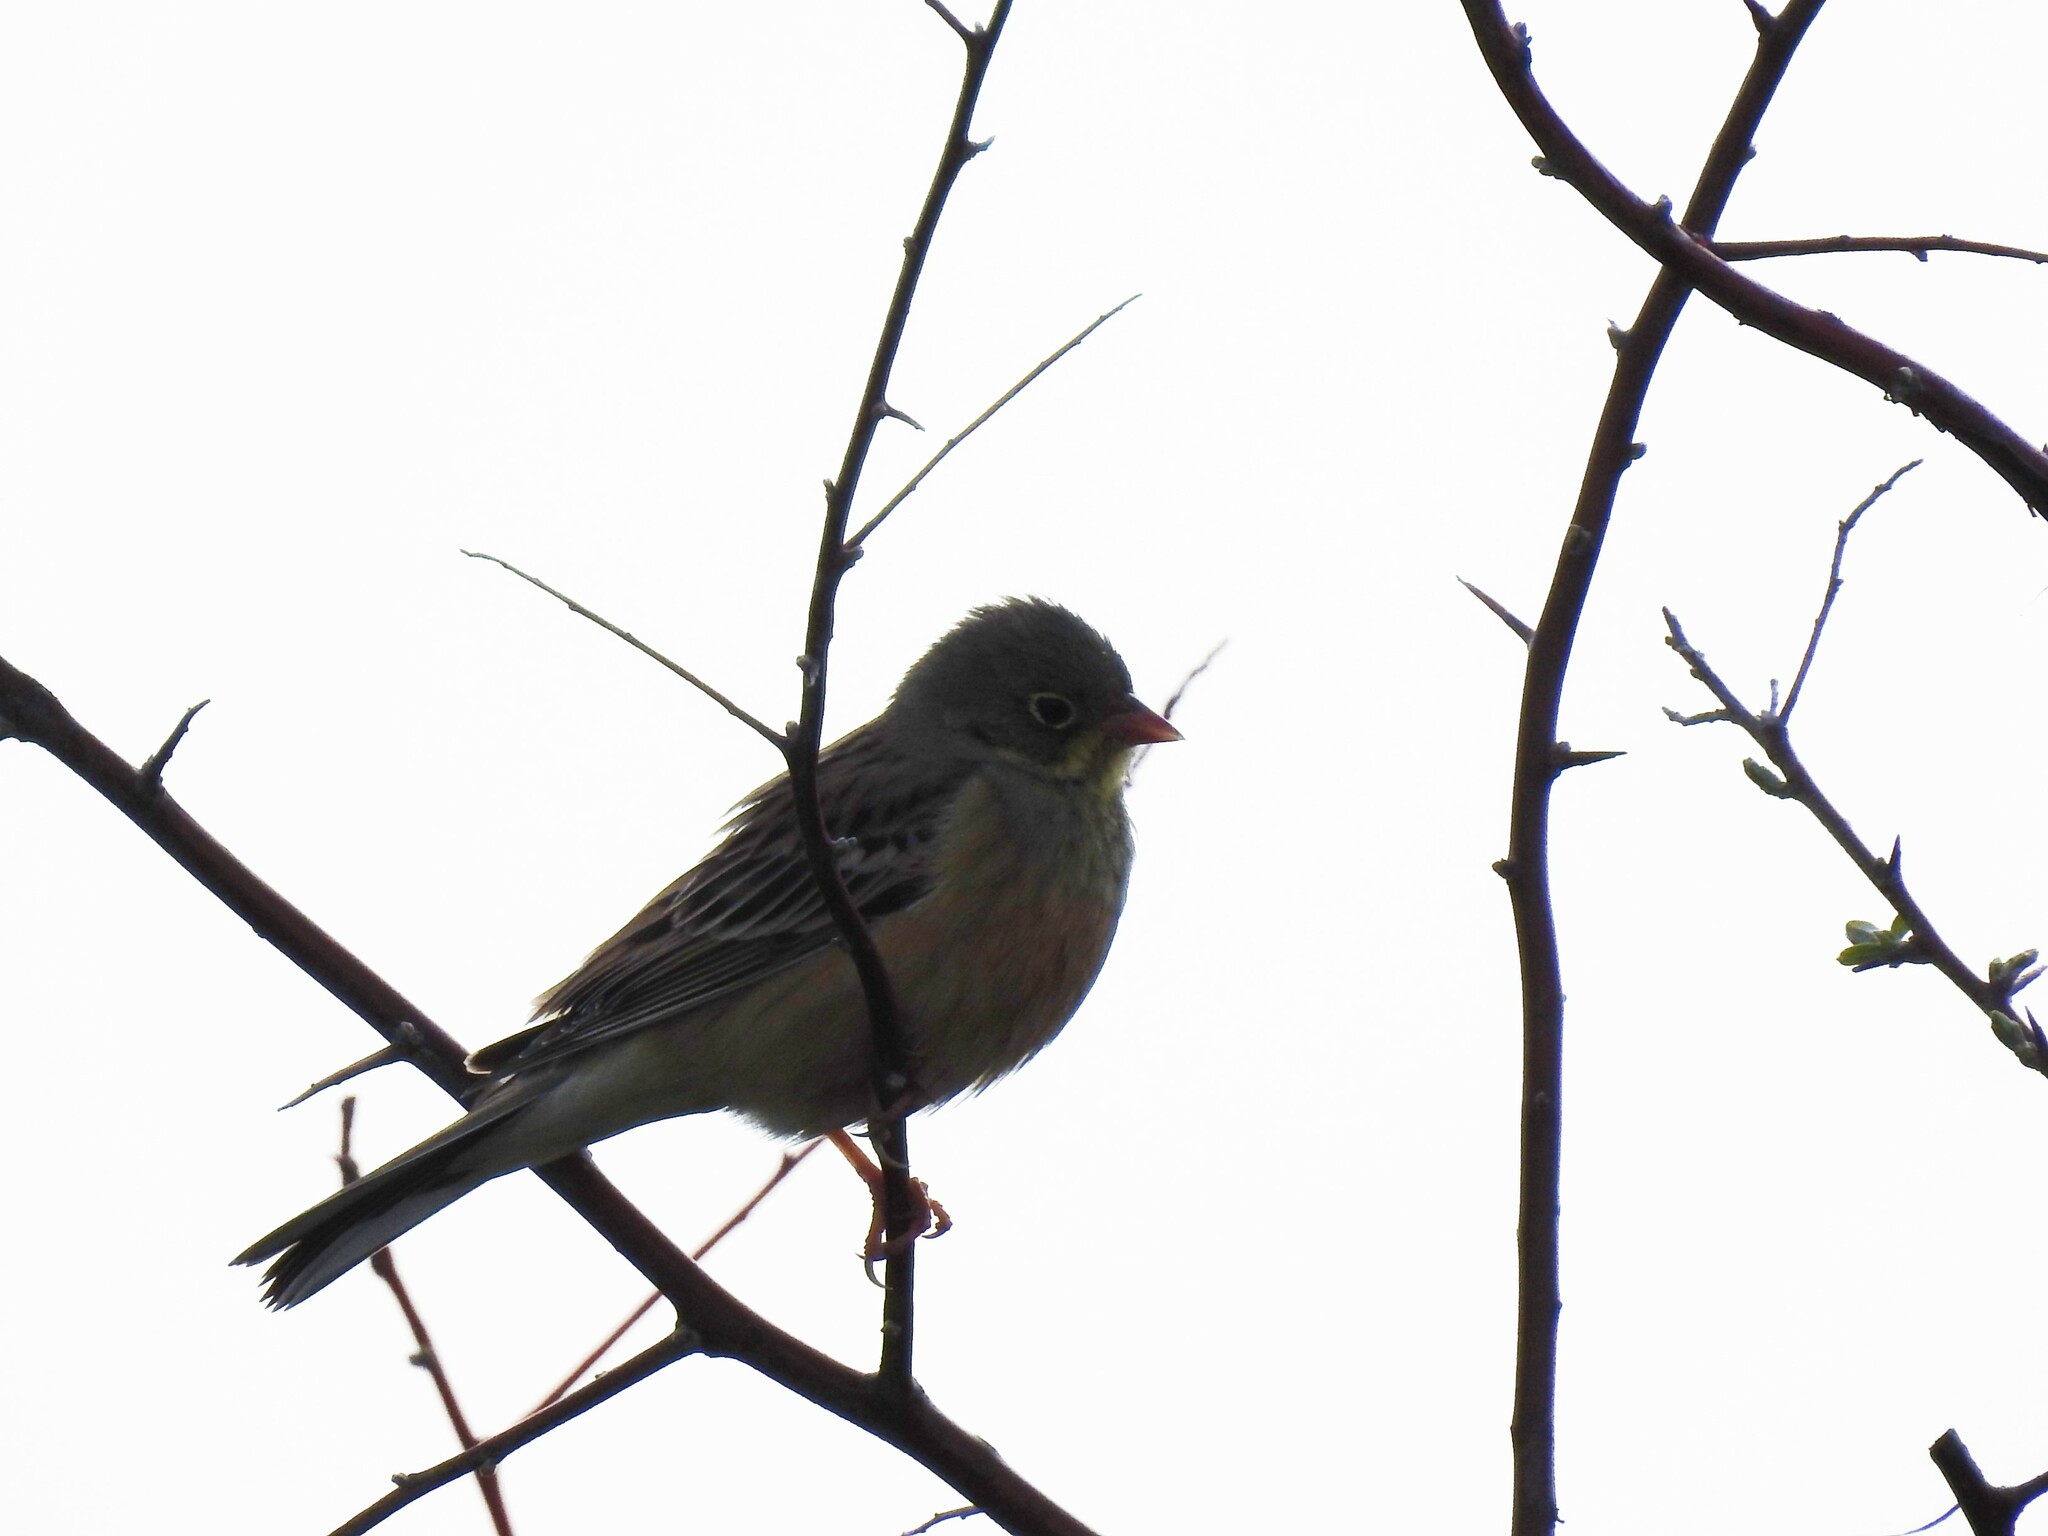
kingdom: Animalia
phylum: Chordata
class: Aves
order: Passeriformes
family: Emberizidae
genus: Emberiza
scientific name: Emberiza hortulana
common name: Ortolan bunting
